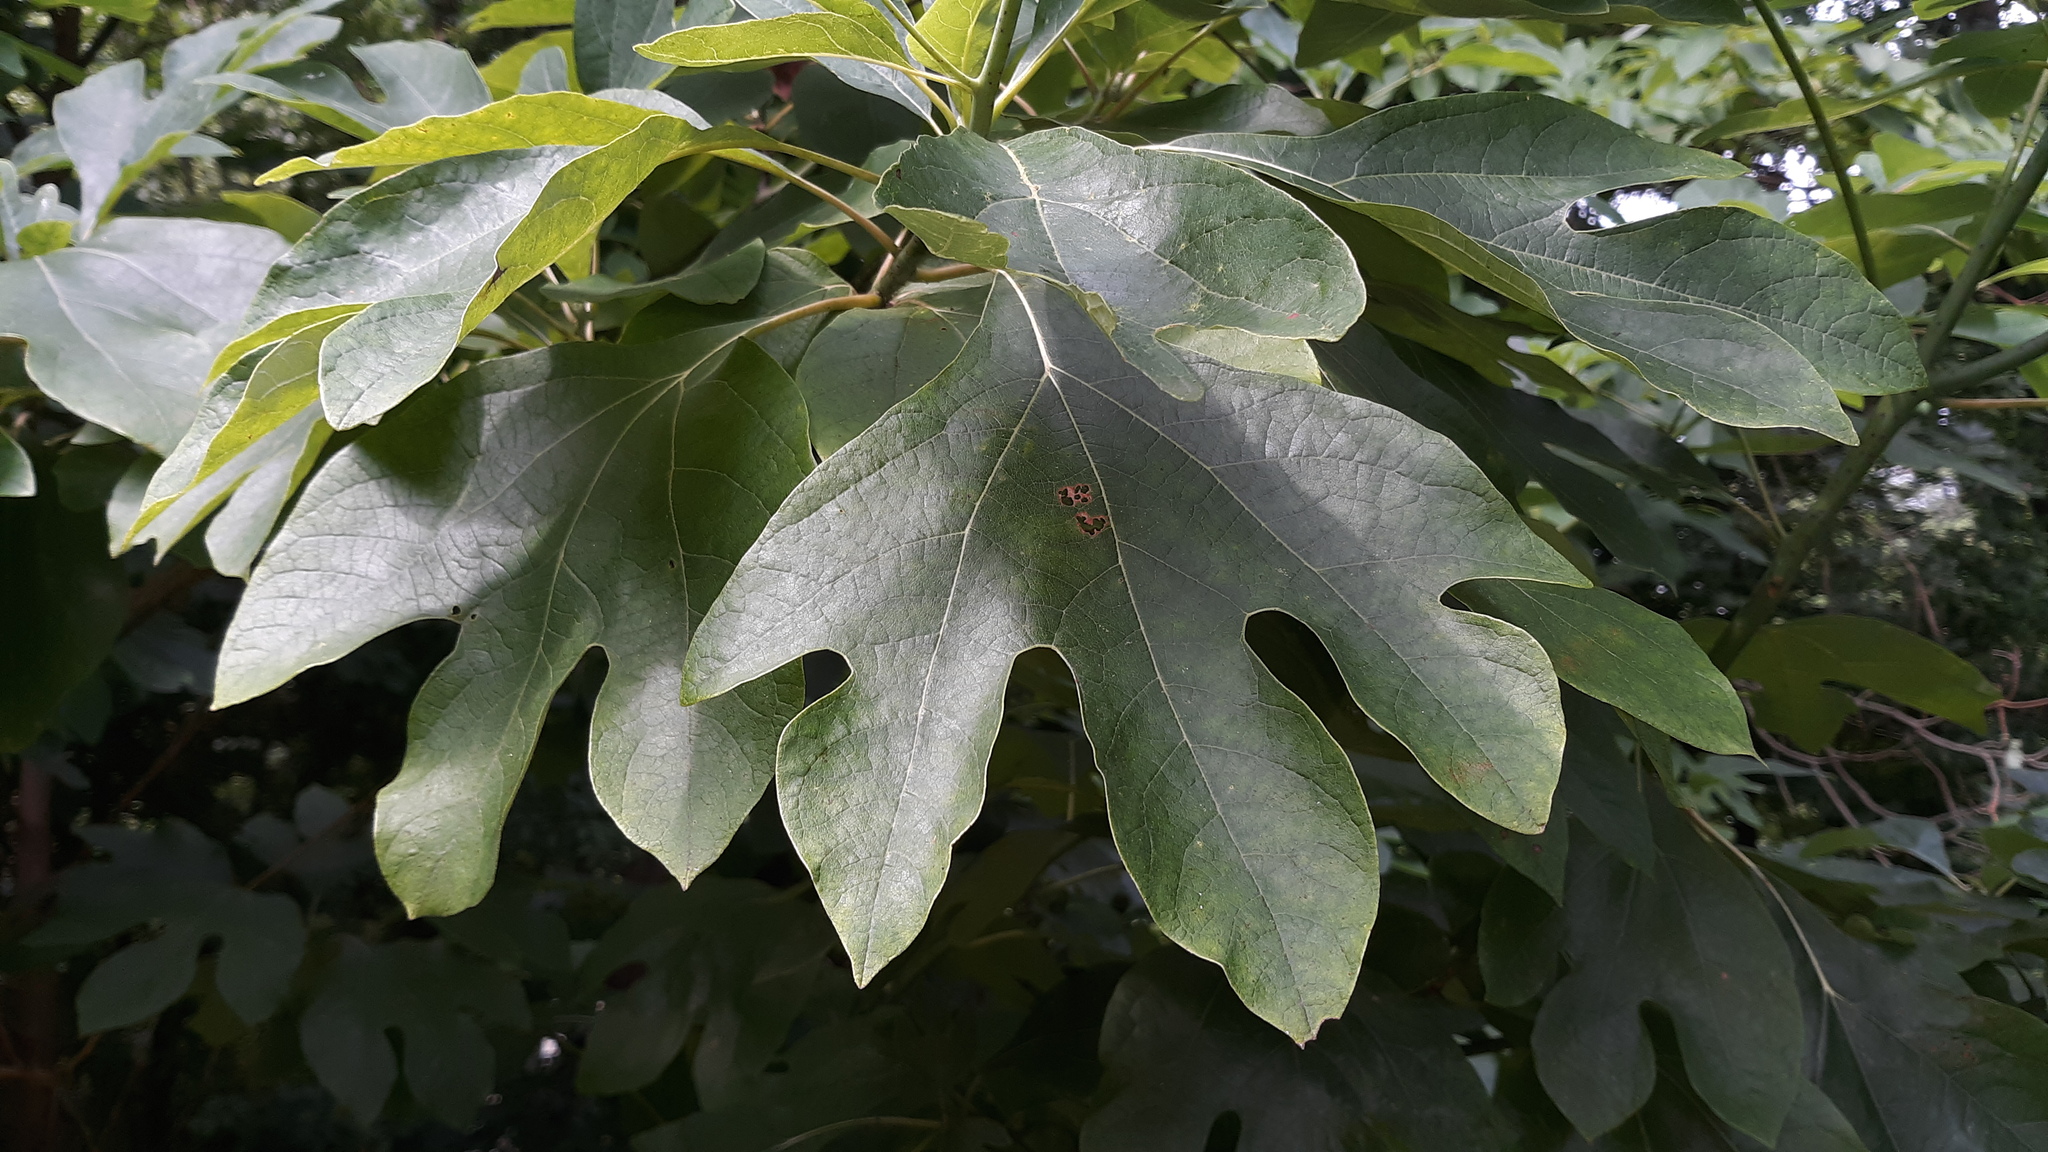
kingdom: Plantae
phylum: Tracheophyta
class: Magnoliopsida
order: Laurales
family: Lauraceae
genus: Sassafras
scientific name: Sassafras albidum
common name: Sassafras
